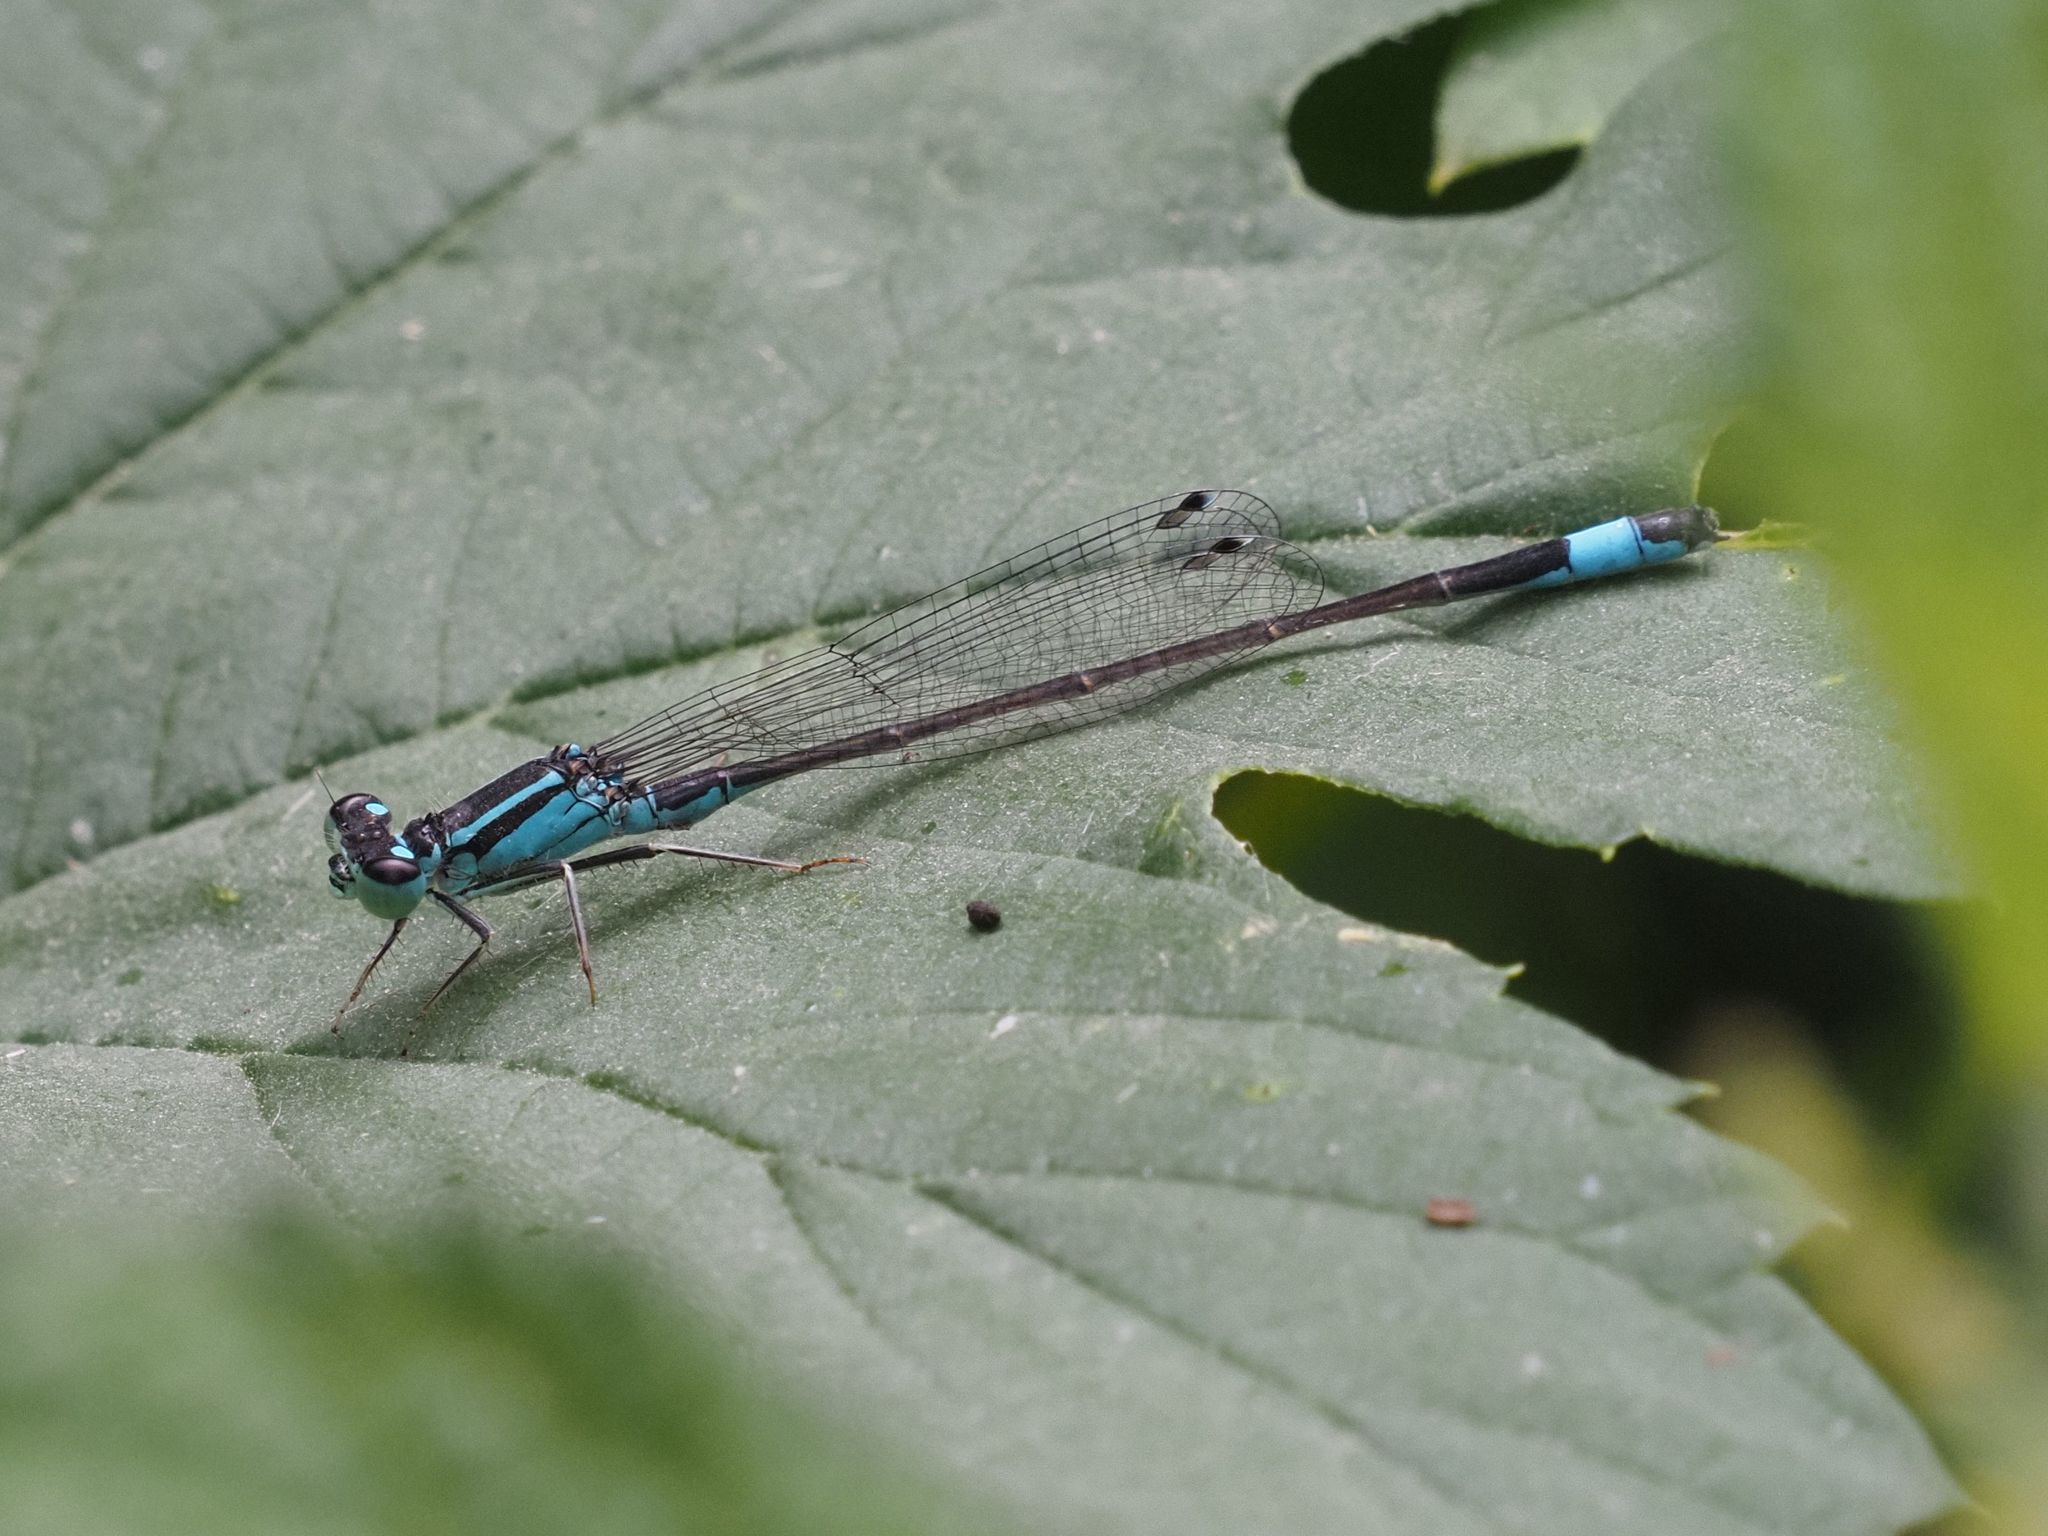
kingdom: Animalia
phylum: Arthropoda
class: Insecta
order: Odonata
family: Coenagrionidae
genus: Ischnura
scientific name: Ischnura elegans
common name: Blue-tailed damselfly
